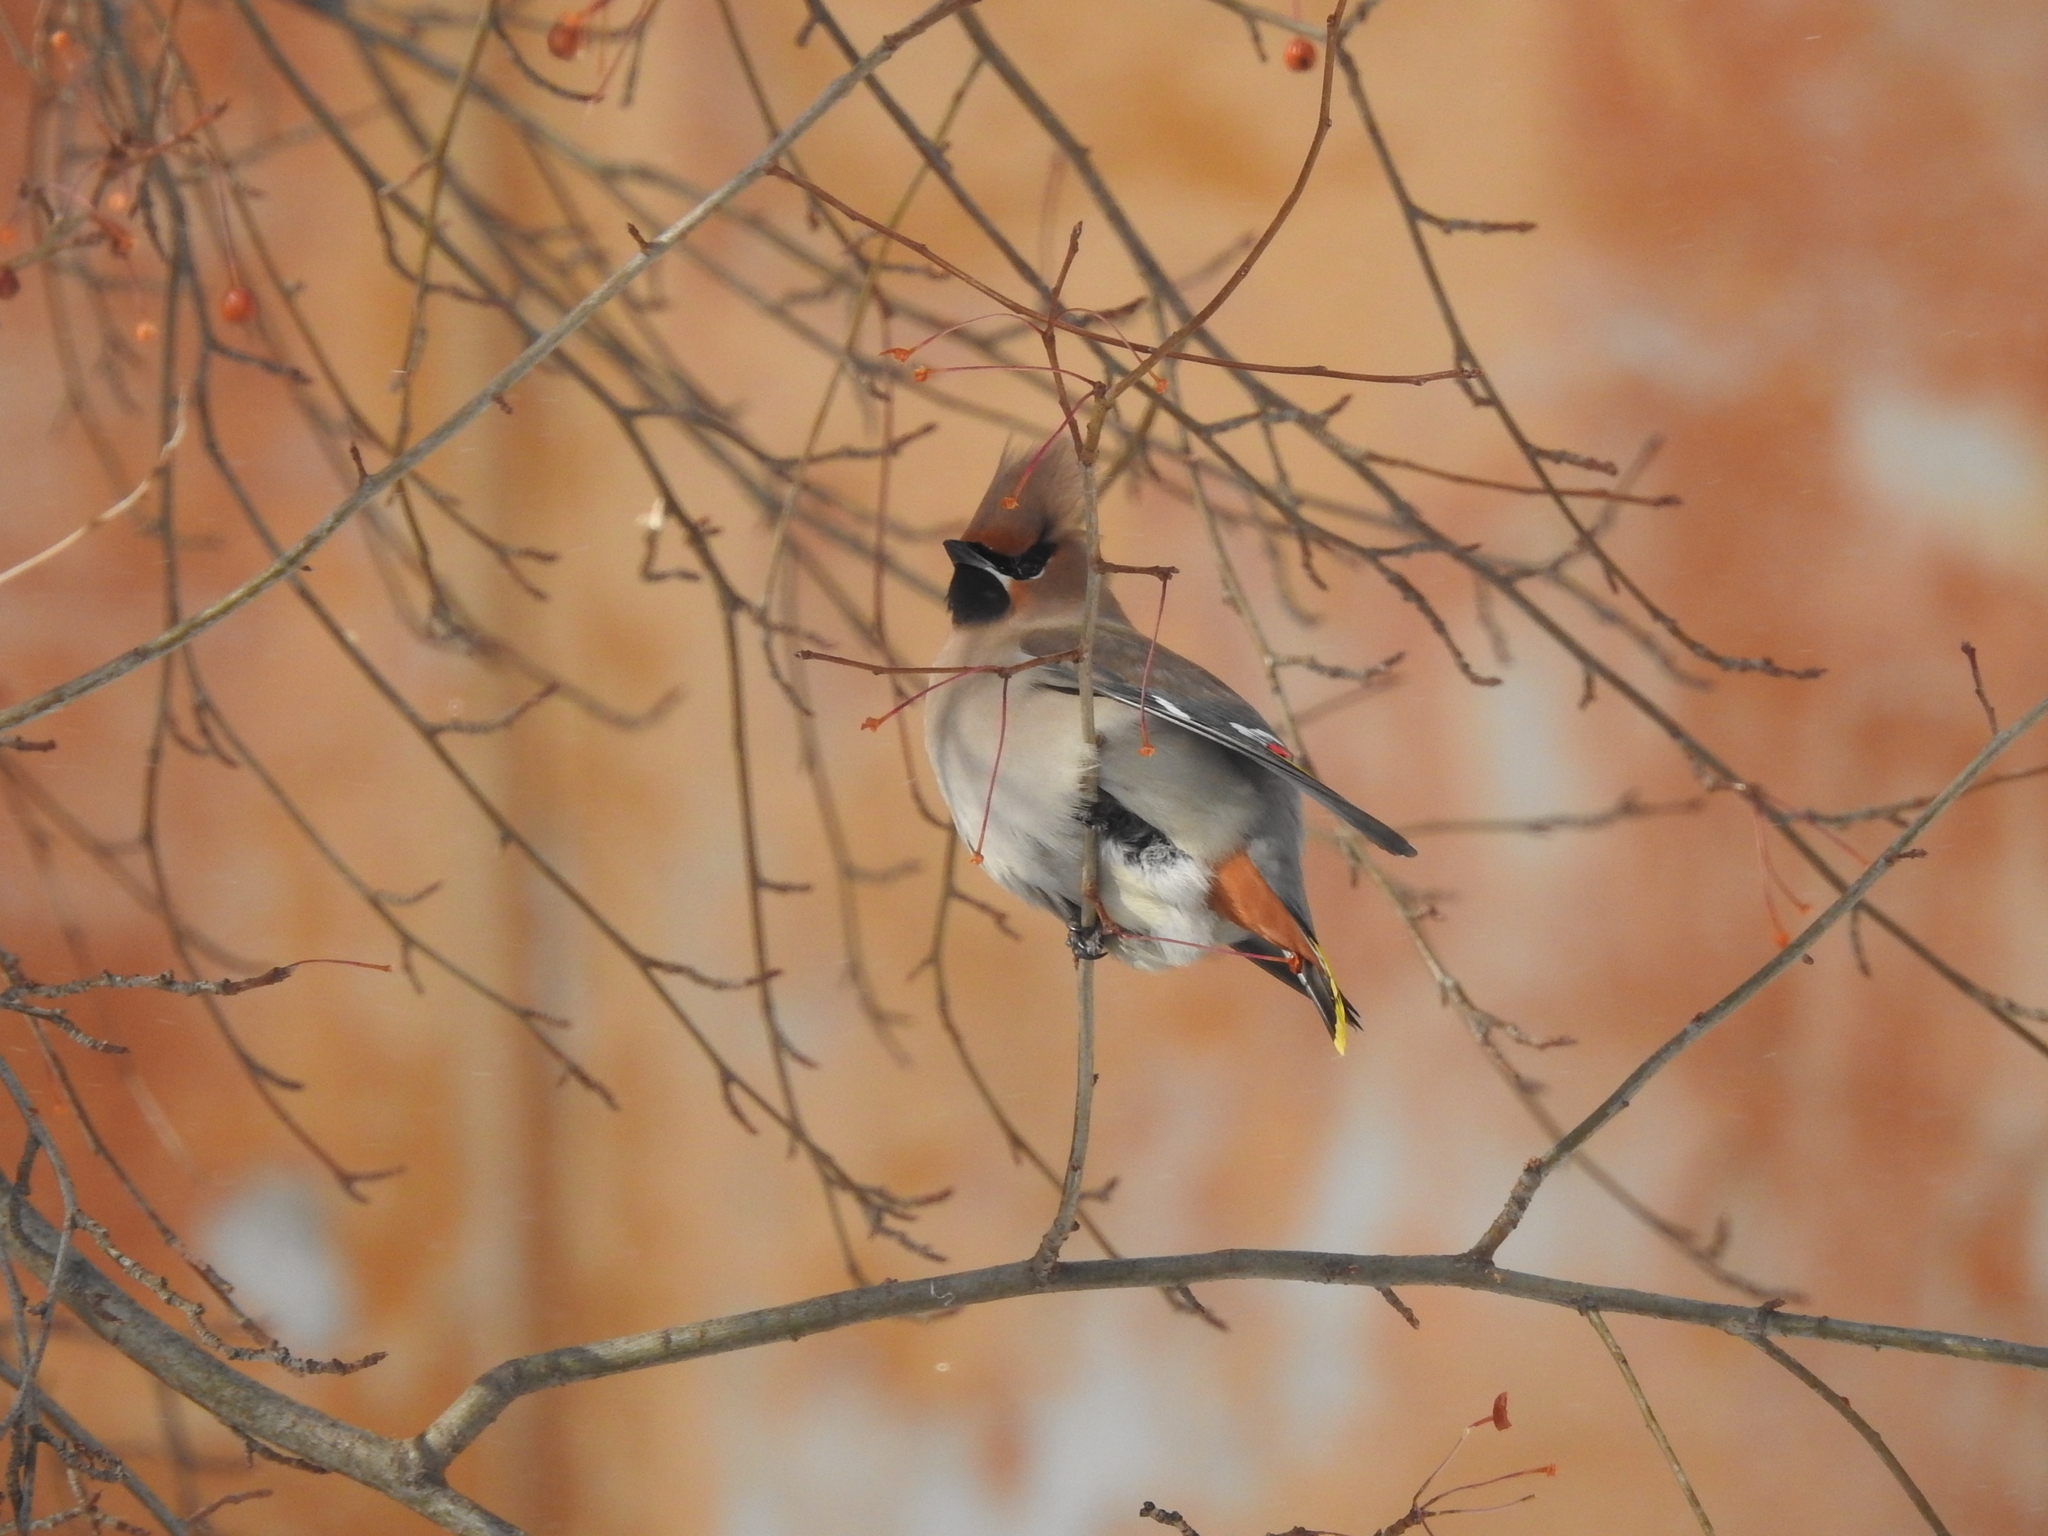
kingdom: Animalia
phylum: Chordata
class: Aves
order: Passeriformes
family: Bombycillidae
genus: Bombycilla
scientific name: Bombycilla garrulus
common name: Bohemian waxwing
